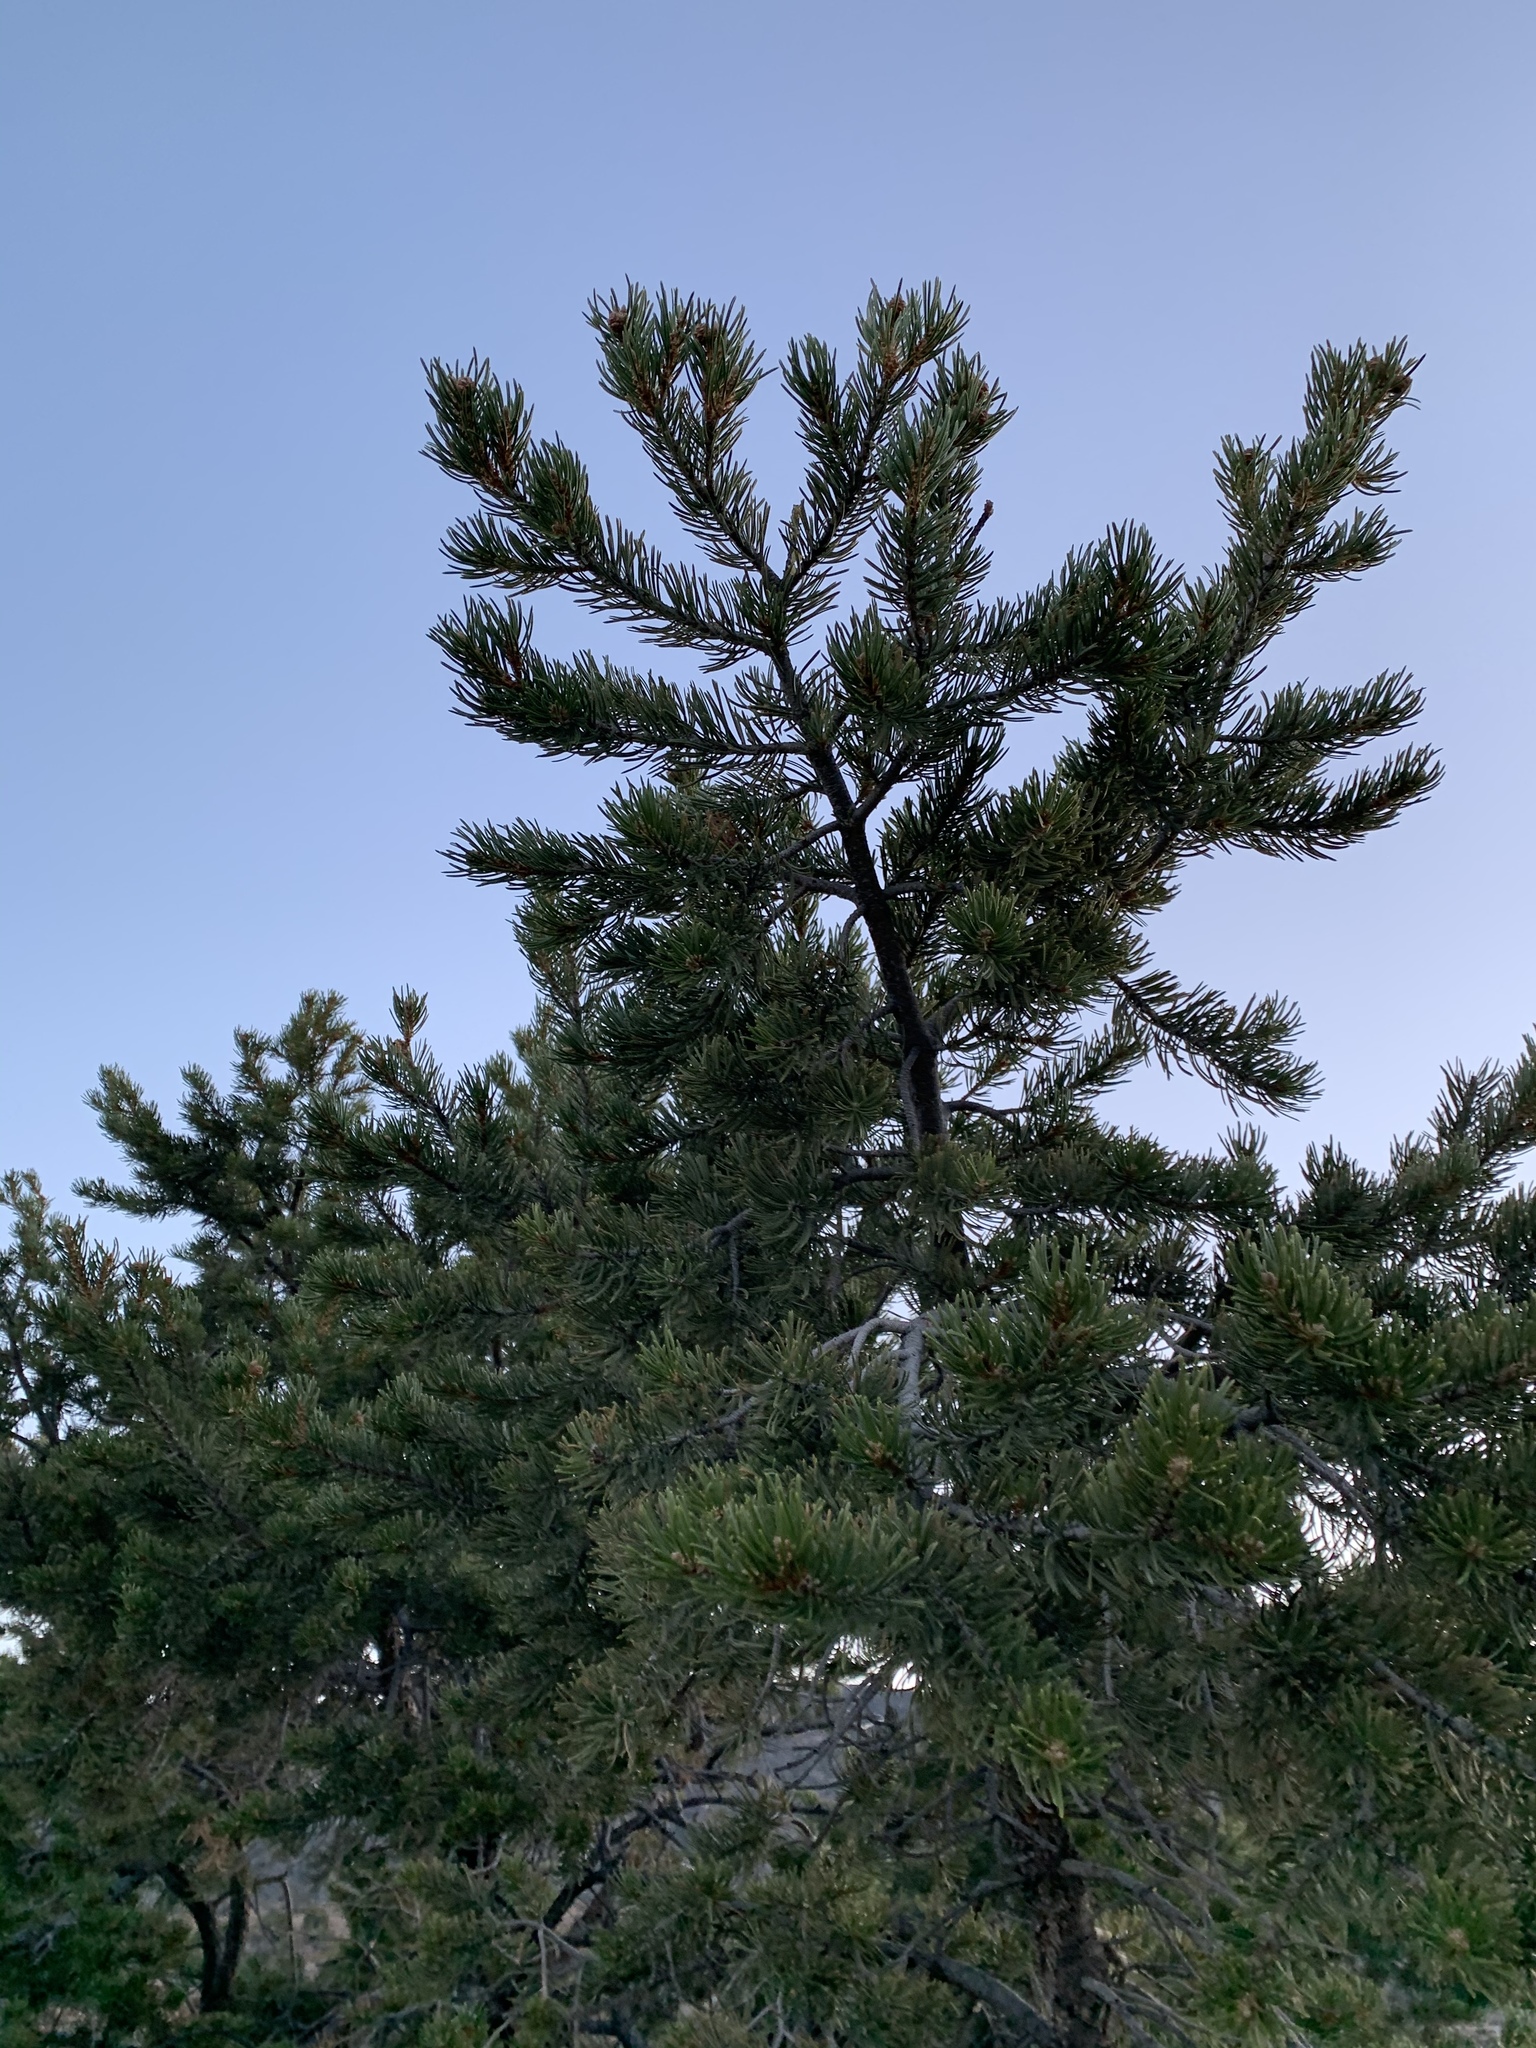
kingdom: Plantae
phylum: Tracheophyta
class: Pinopsida
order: Pinales
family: Pinaceae
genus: Pinus
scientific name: Pinus edulis
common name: Colorado pinyon
